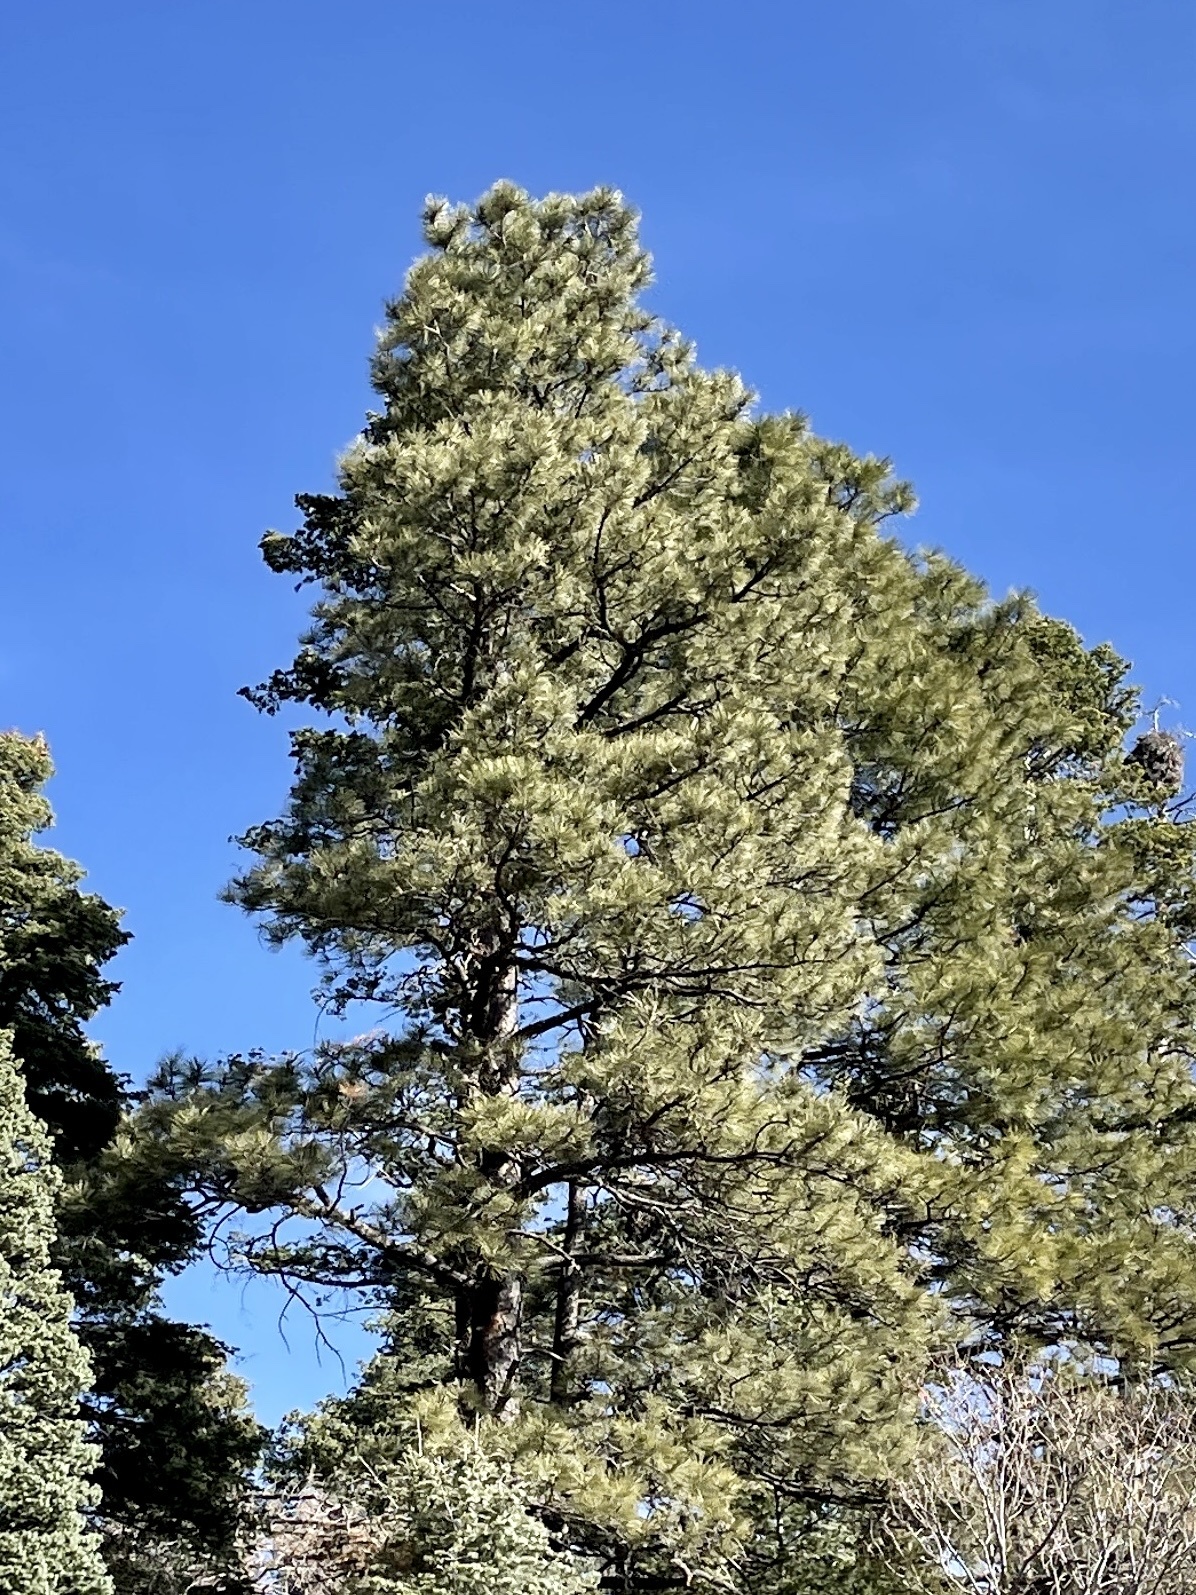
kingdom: Plantae
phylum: Tracheophyta
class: Pinopsida
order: Pinales
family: Pinaceae
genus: Pinus
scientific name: Pinus ponderosa
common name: Western yellow-pine
